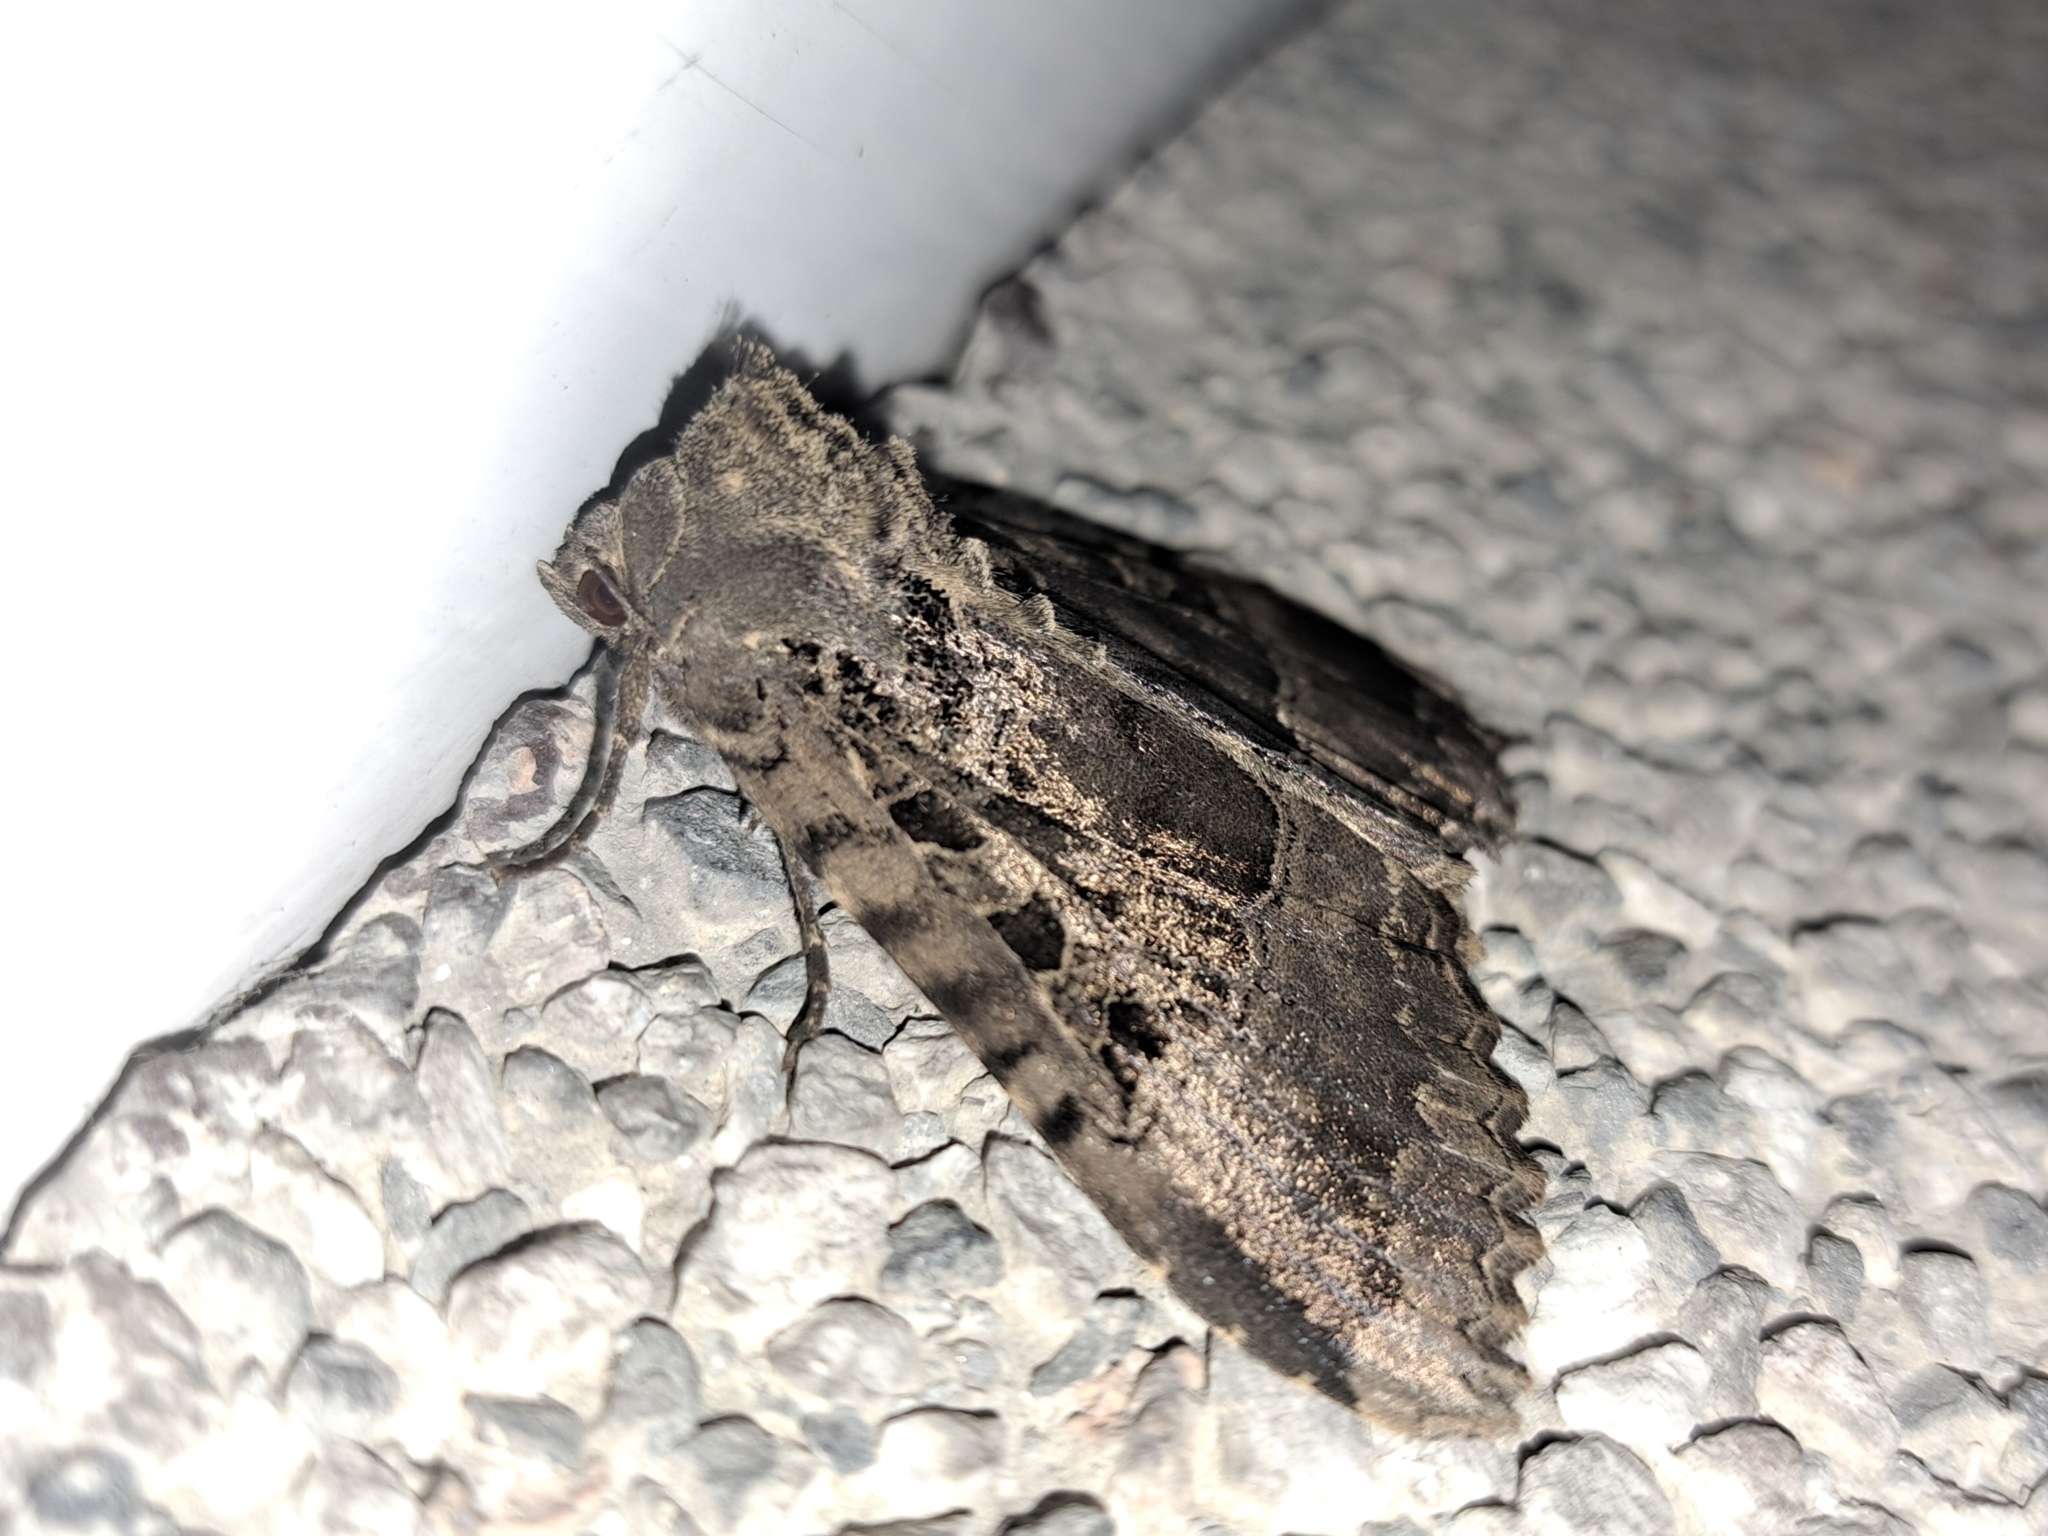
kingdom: Animalia
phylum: Arthropoda
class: Insecta
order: Lepidoptera
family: Noctuidae
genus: Mormo
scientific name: Mormo maura
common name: Old lady
